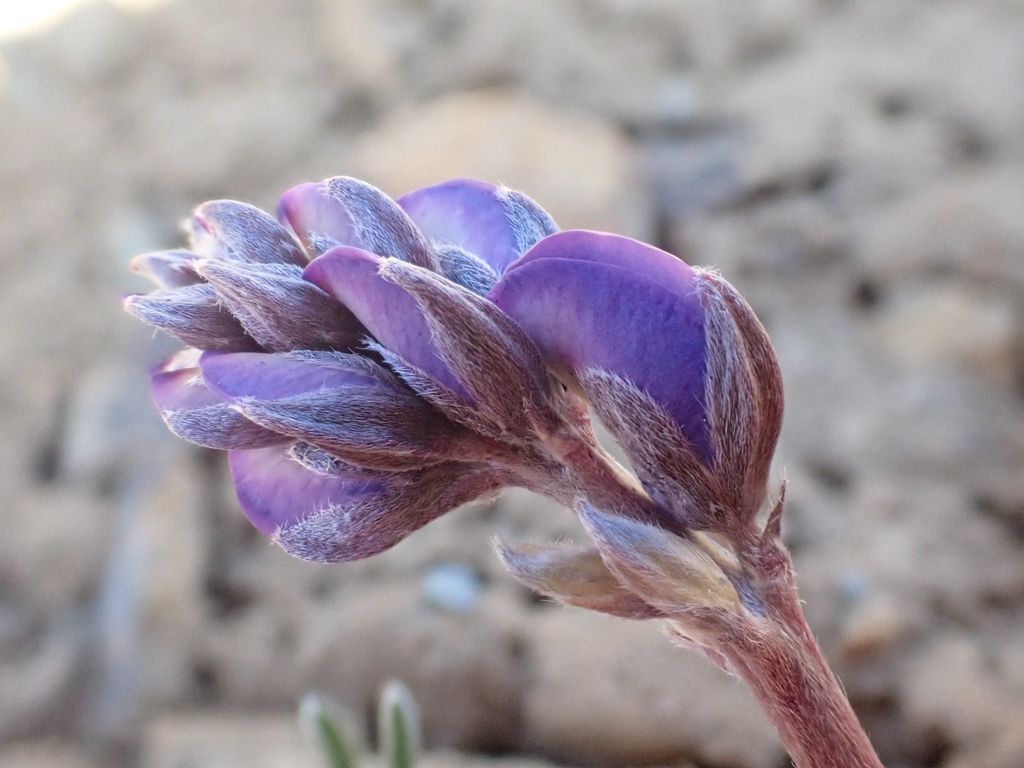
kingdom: Plantae
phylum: Tracheophyta
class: Magnoliopsida
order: Fabales
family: Fabaceae
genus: Lupinus
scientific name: Lupinus lapidicola
